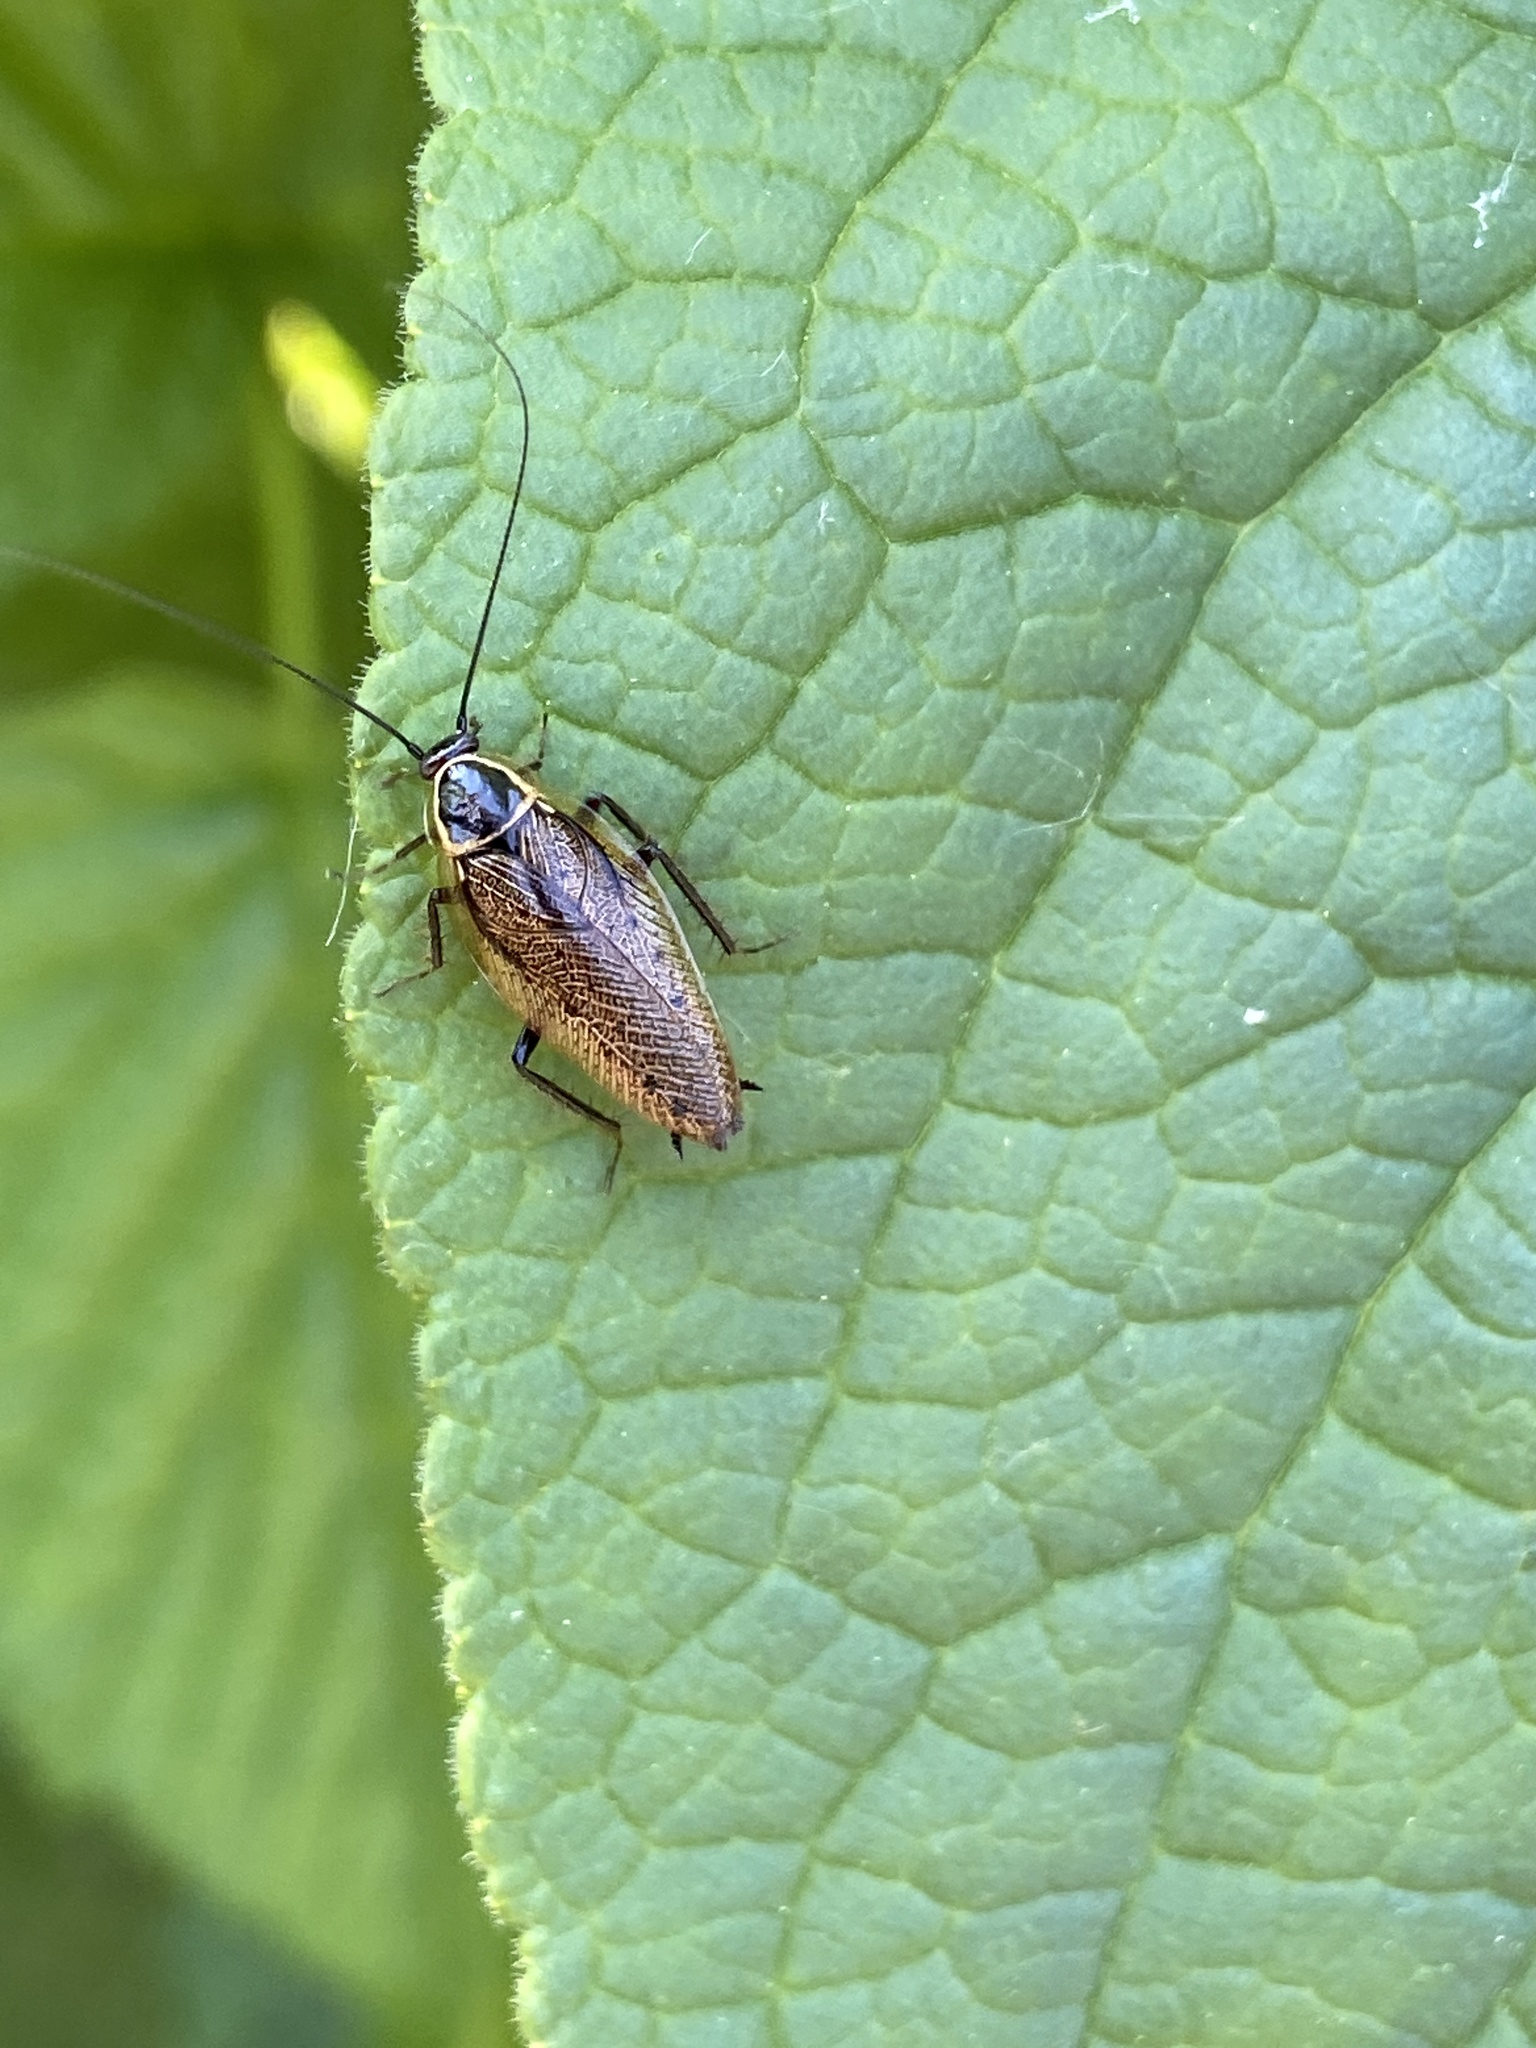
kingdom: Animalia
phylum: Arthropoda
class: Insecta
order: Blattodea
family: Ectobiidae
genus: Ectobius
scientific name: Ectobius sylvestris
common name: Forest cockroach
